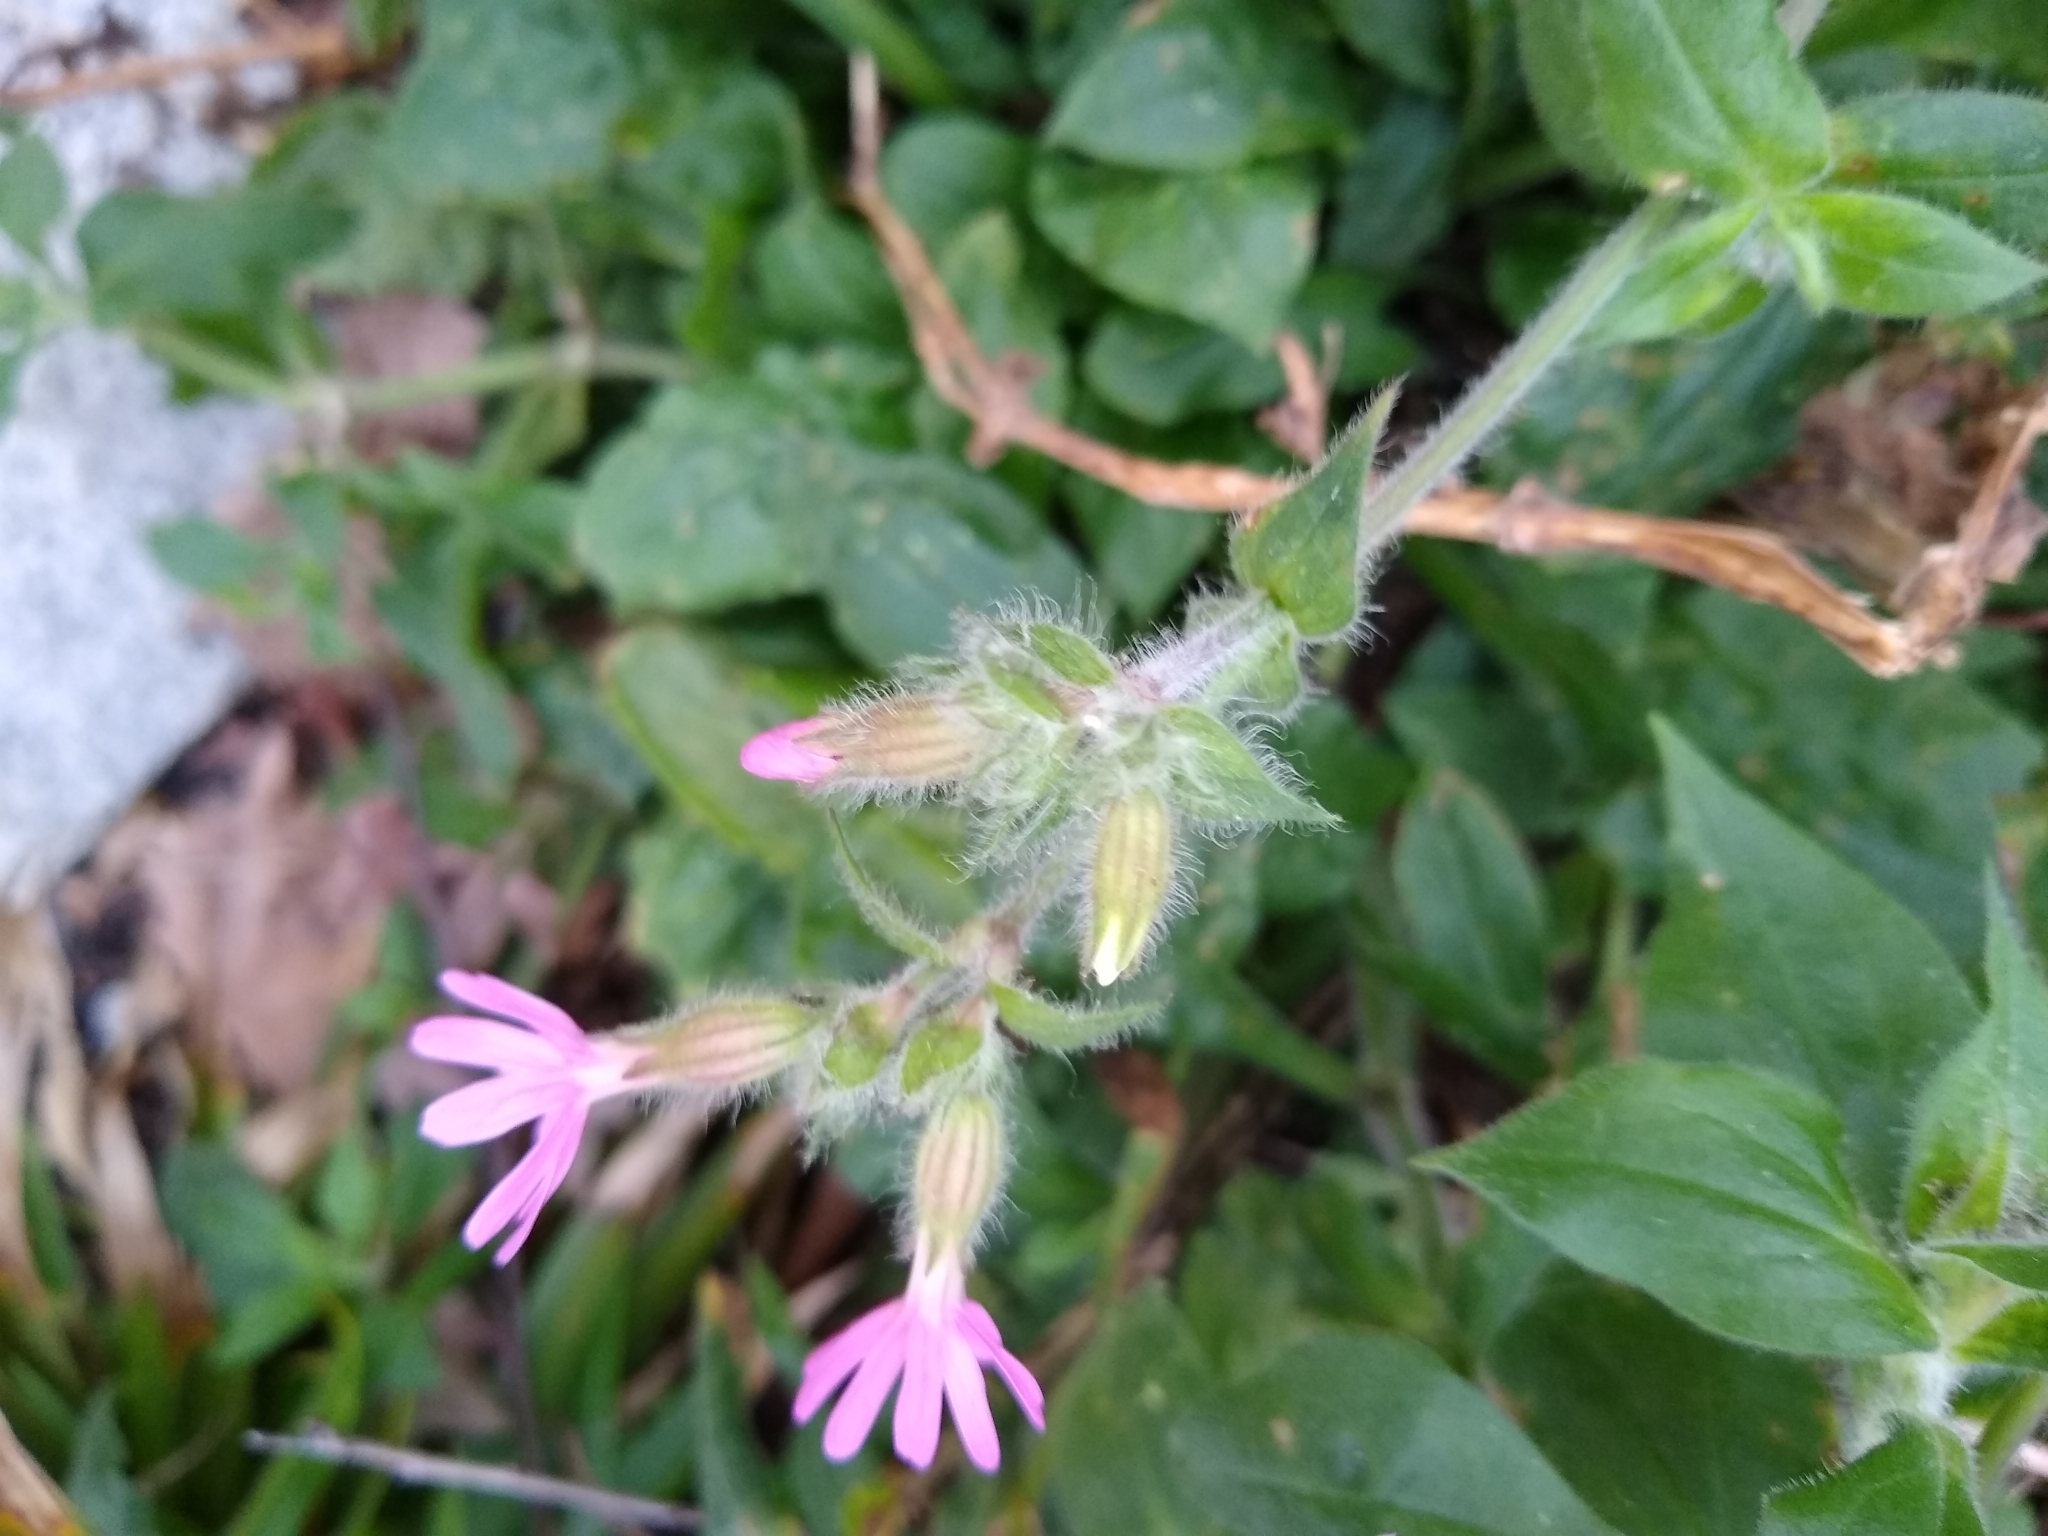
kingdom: Plantae
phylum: Tracheophyta
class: Magnoliopsida
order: Caryophyllales
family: Caryophyllaceae
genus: Silene
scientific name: Silene dioica
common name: Red campion
